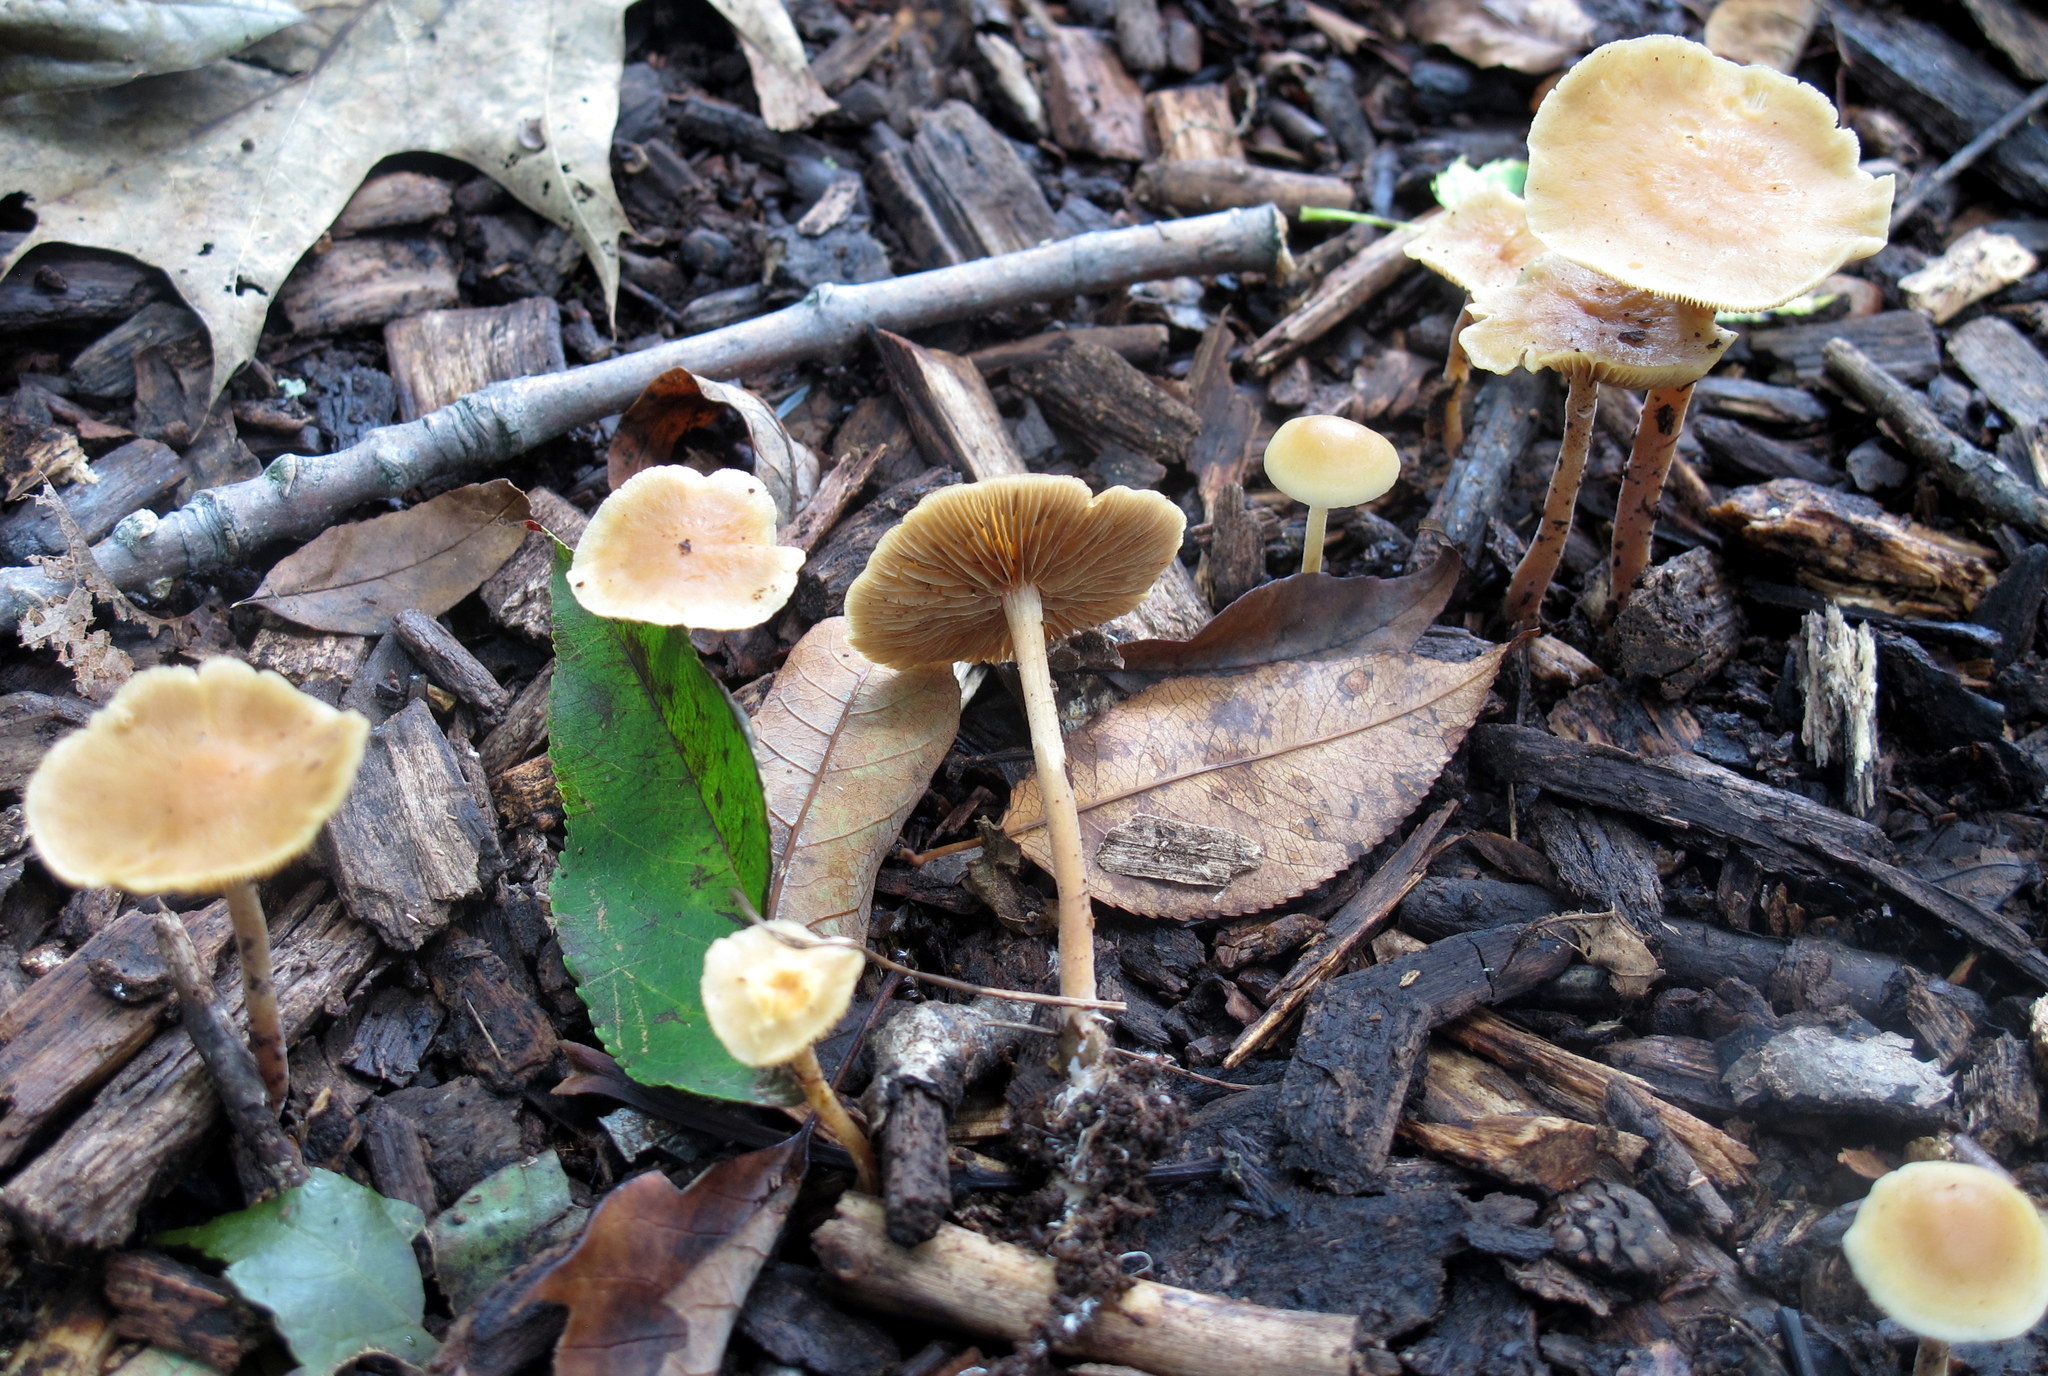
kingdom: Fungi
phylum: Basidiomycota
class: Agaricomycetes
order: Agaricales
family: Strophariaceae
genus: Agrocybe
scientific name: Agrocybe arvalis
